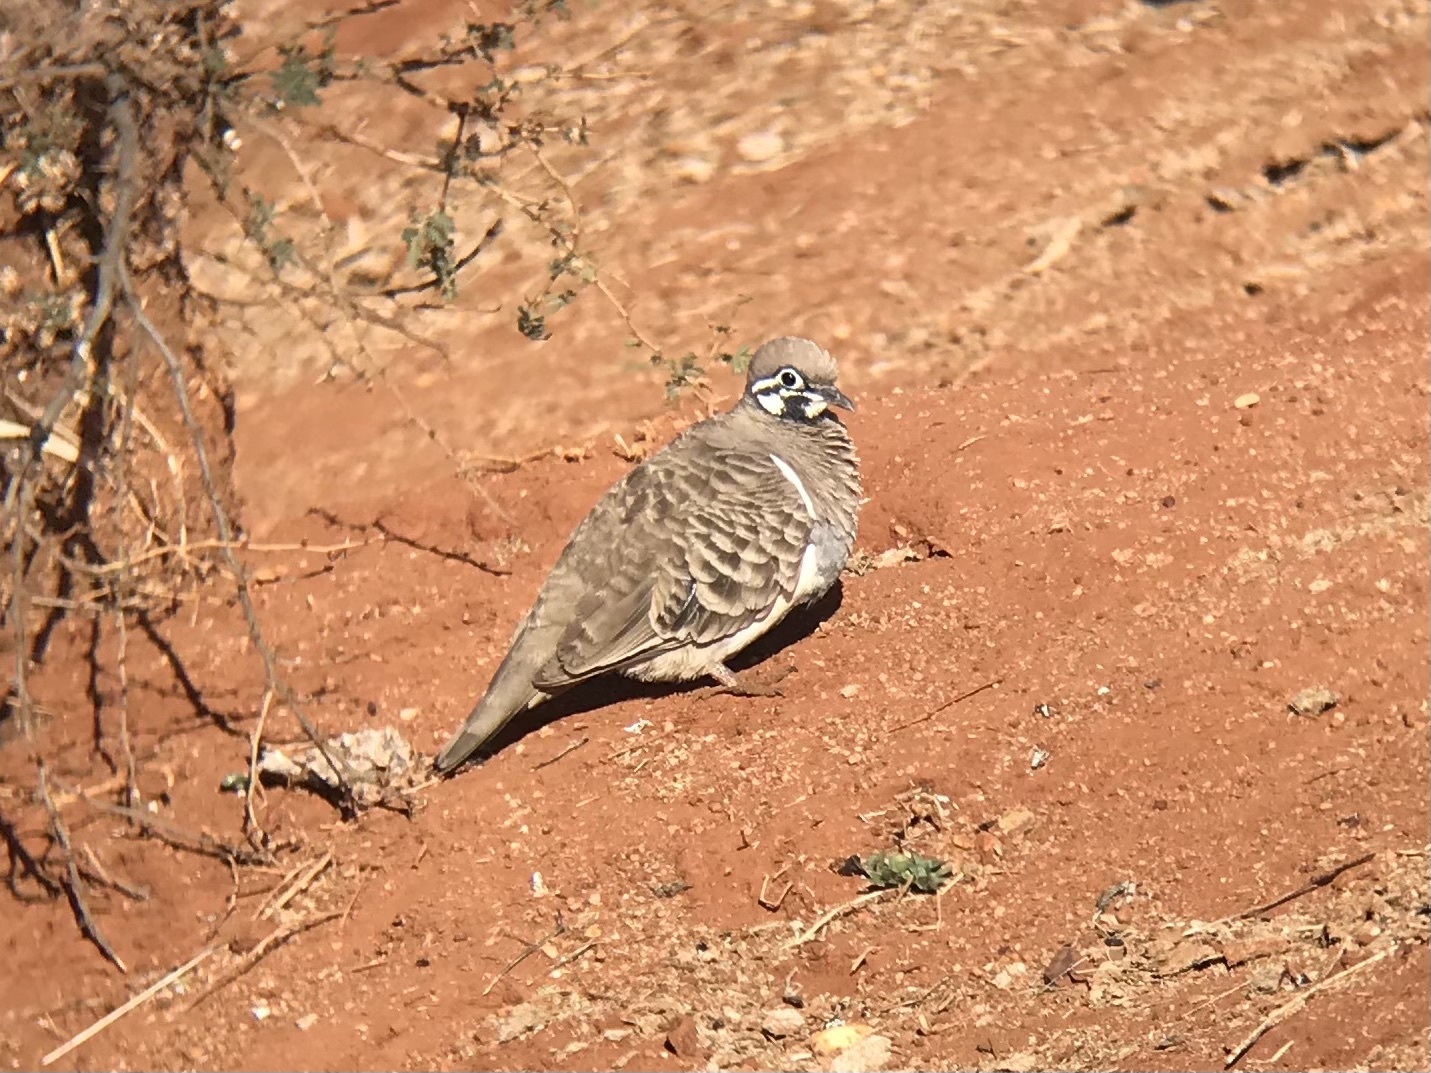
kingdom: Animalia
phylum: Chordata
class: Aves
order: Columbiformes
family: Columbidae
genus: Geophaps
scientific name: Geophaps scripta
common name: Squatter pigeon
